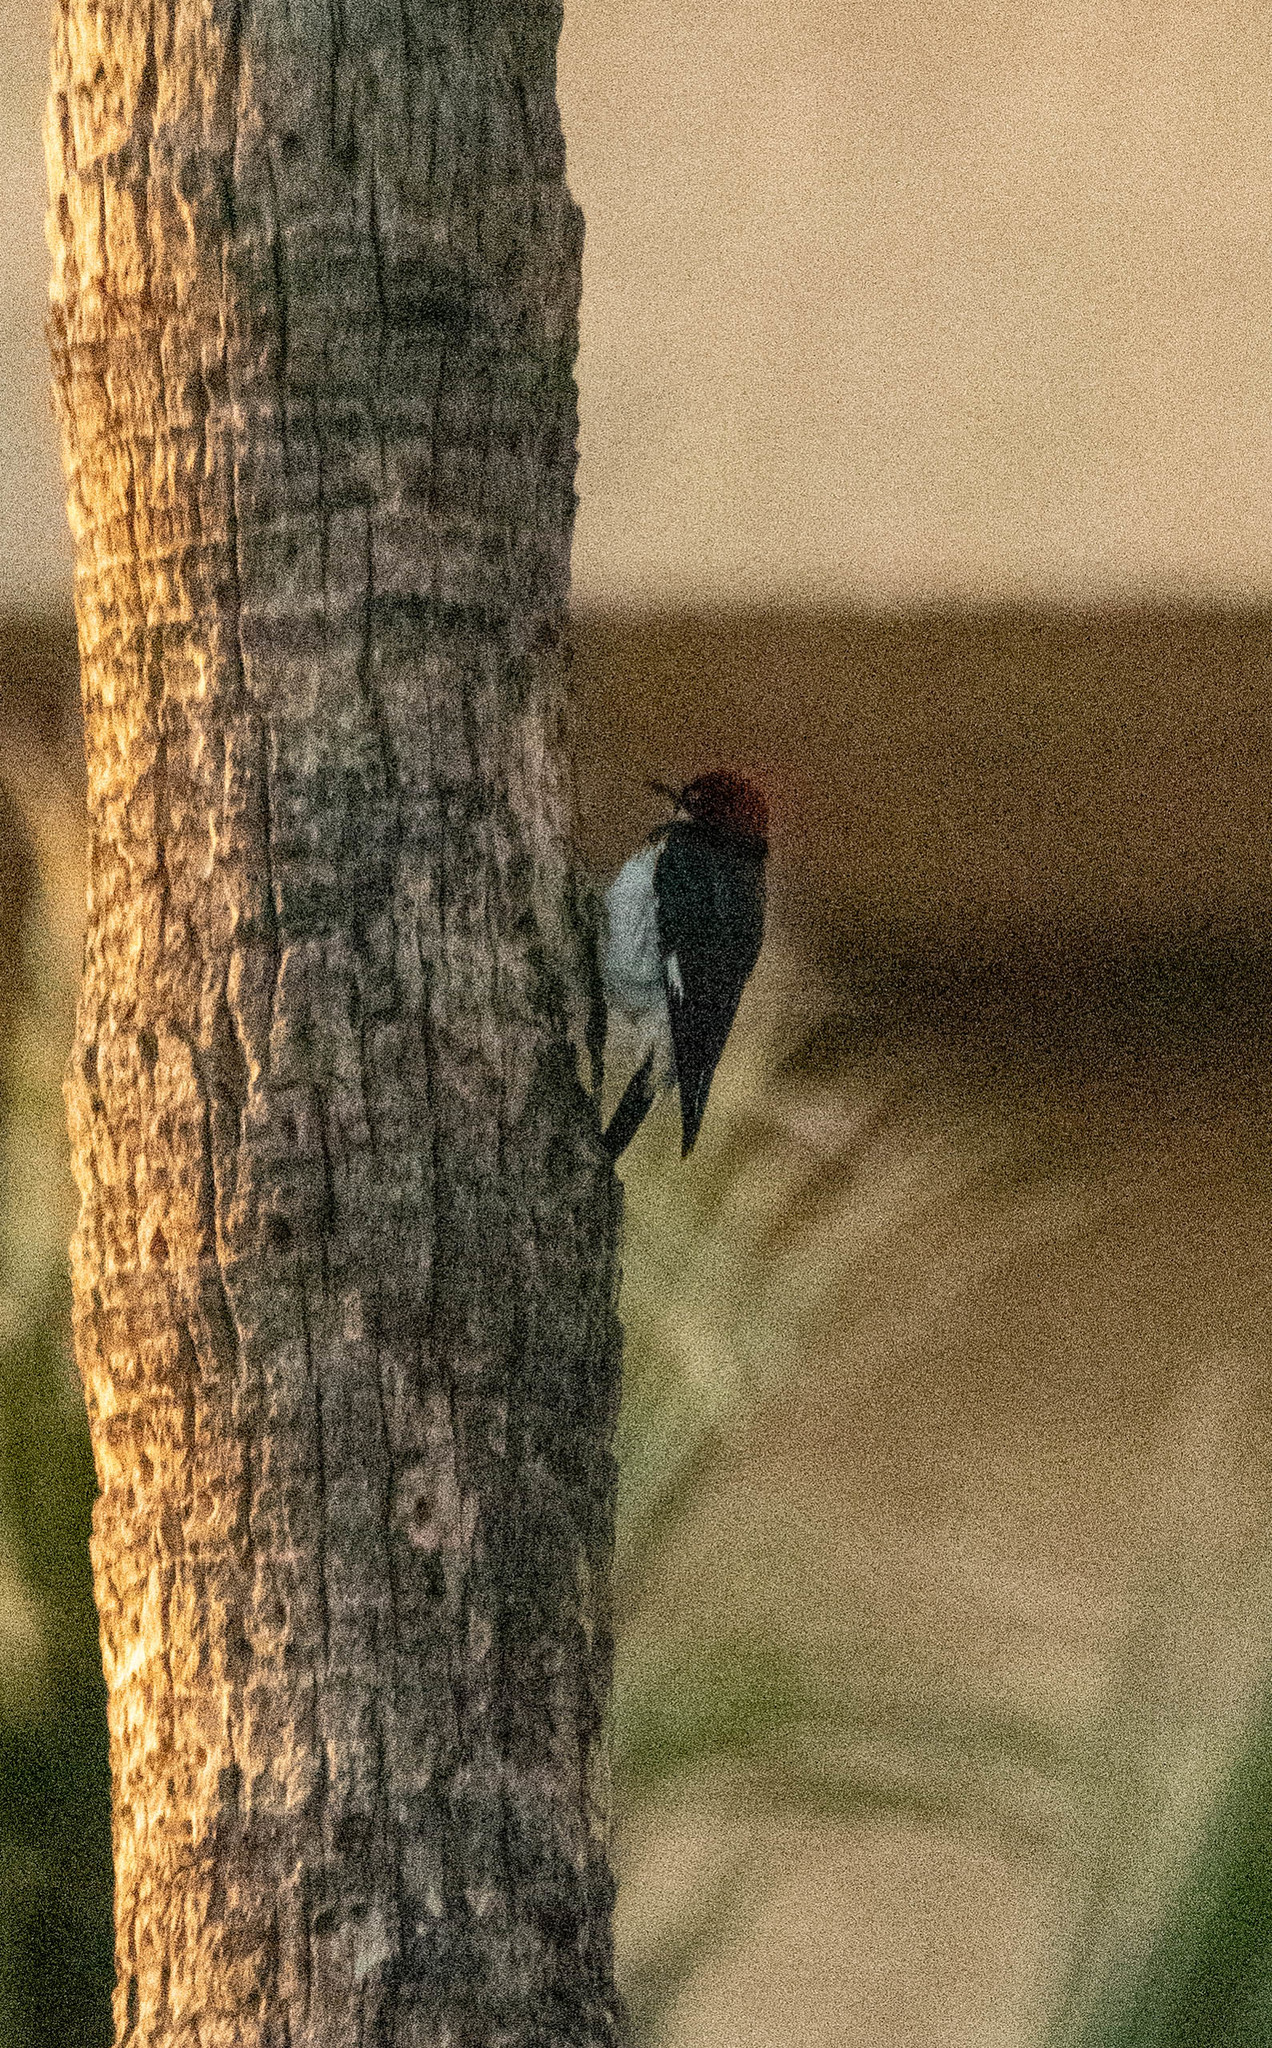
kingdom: Animalia
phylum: Chordata
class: Aves
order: Piciformes
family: Picidae
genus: Melanerpes
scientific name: Melanerpes formicivorus
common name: Acorn woodpecker
